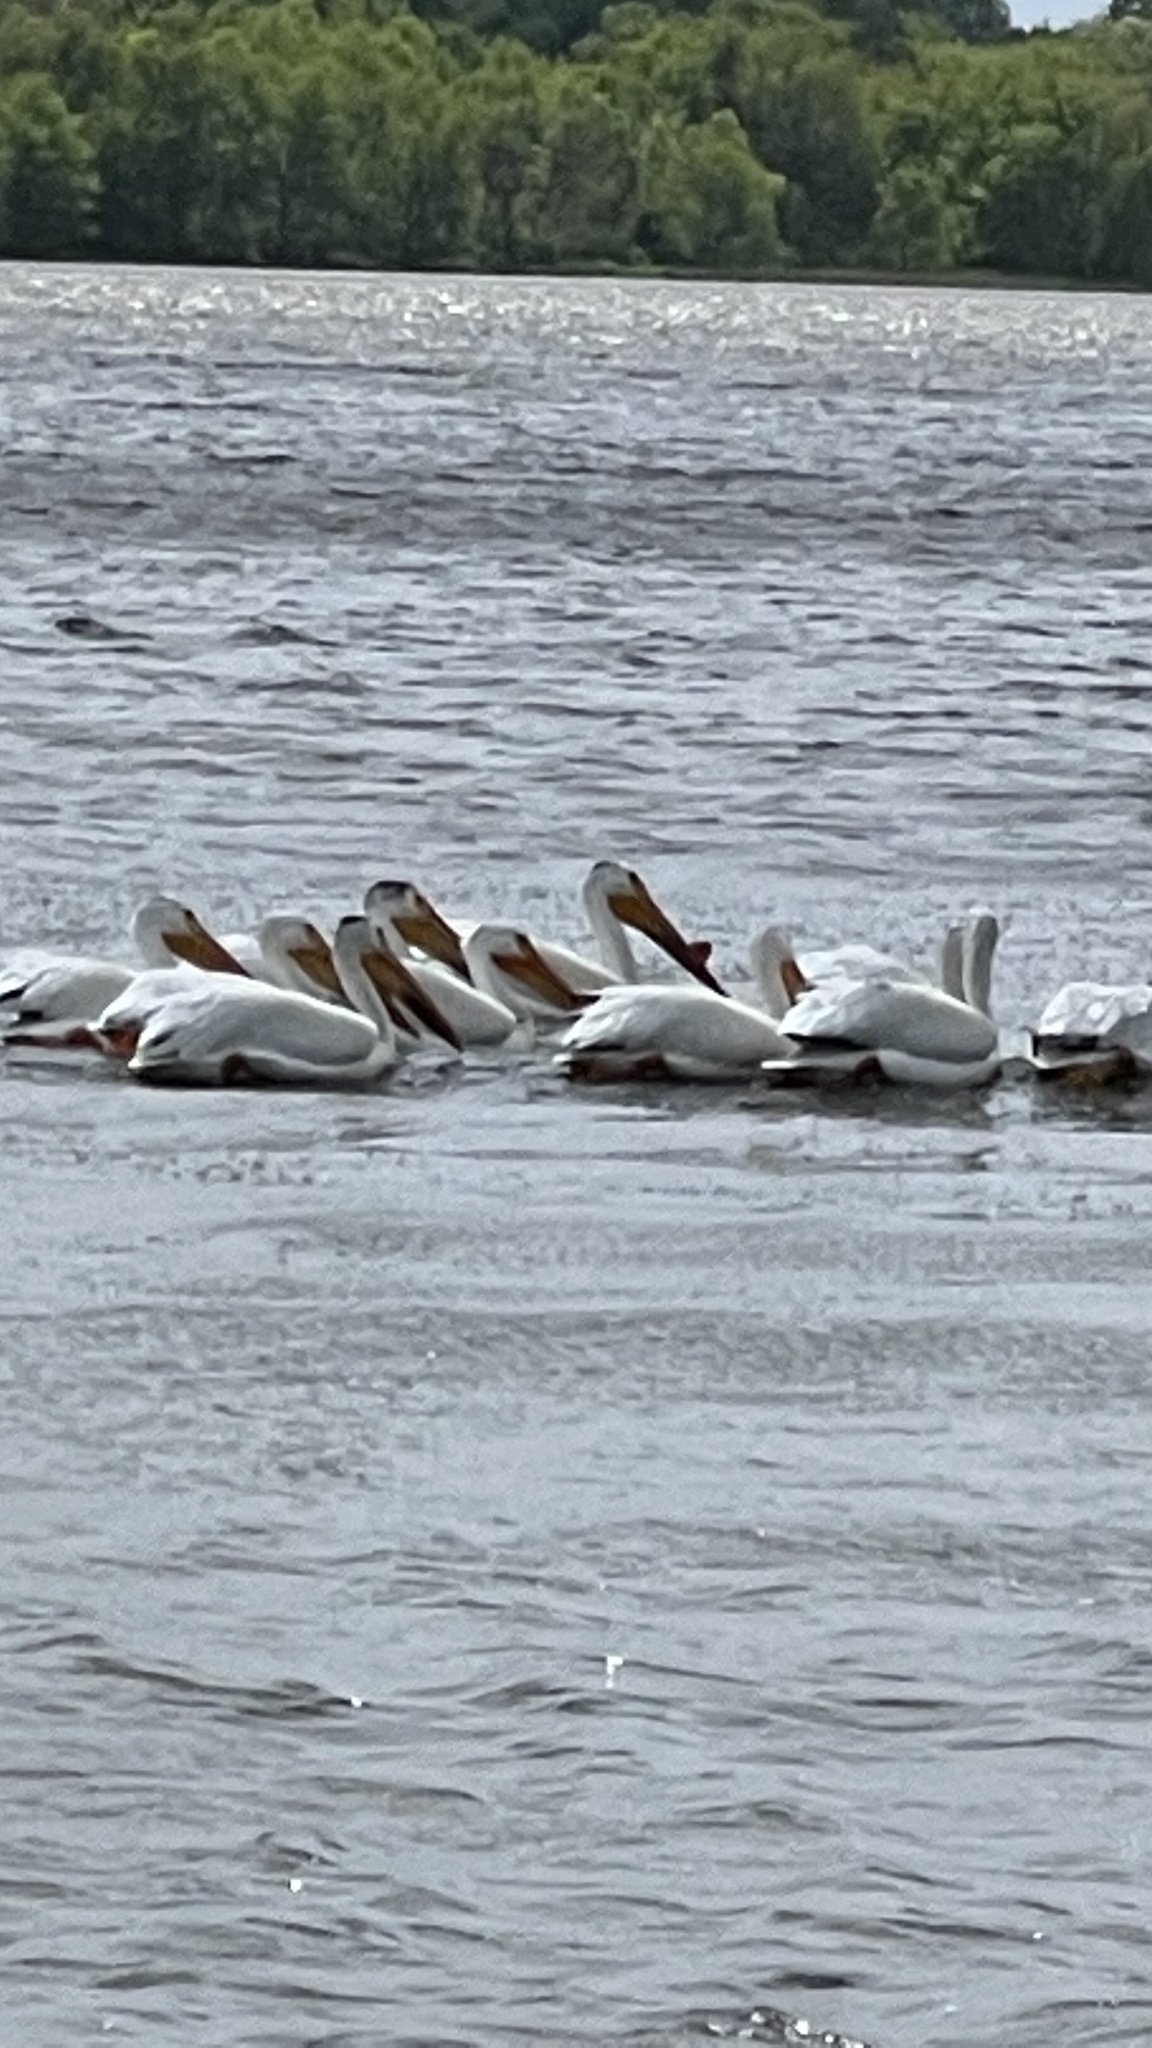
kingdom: Animalia
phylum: Chordata
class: Aves
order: Pelecaniformes
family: Pelecanidae
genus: Pelecanus
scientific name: Pelecanus erythrorhynchos
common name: American white pelican
